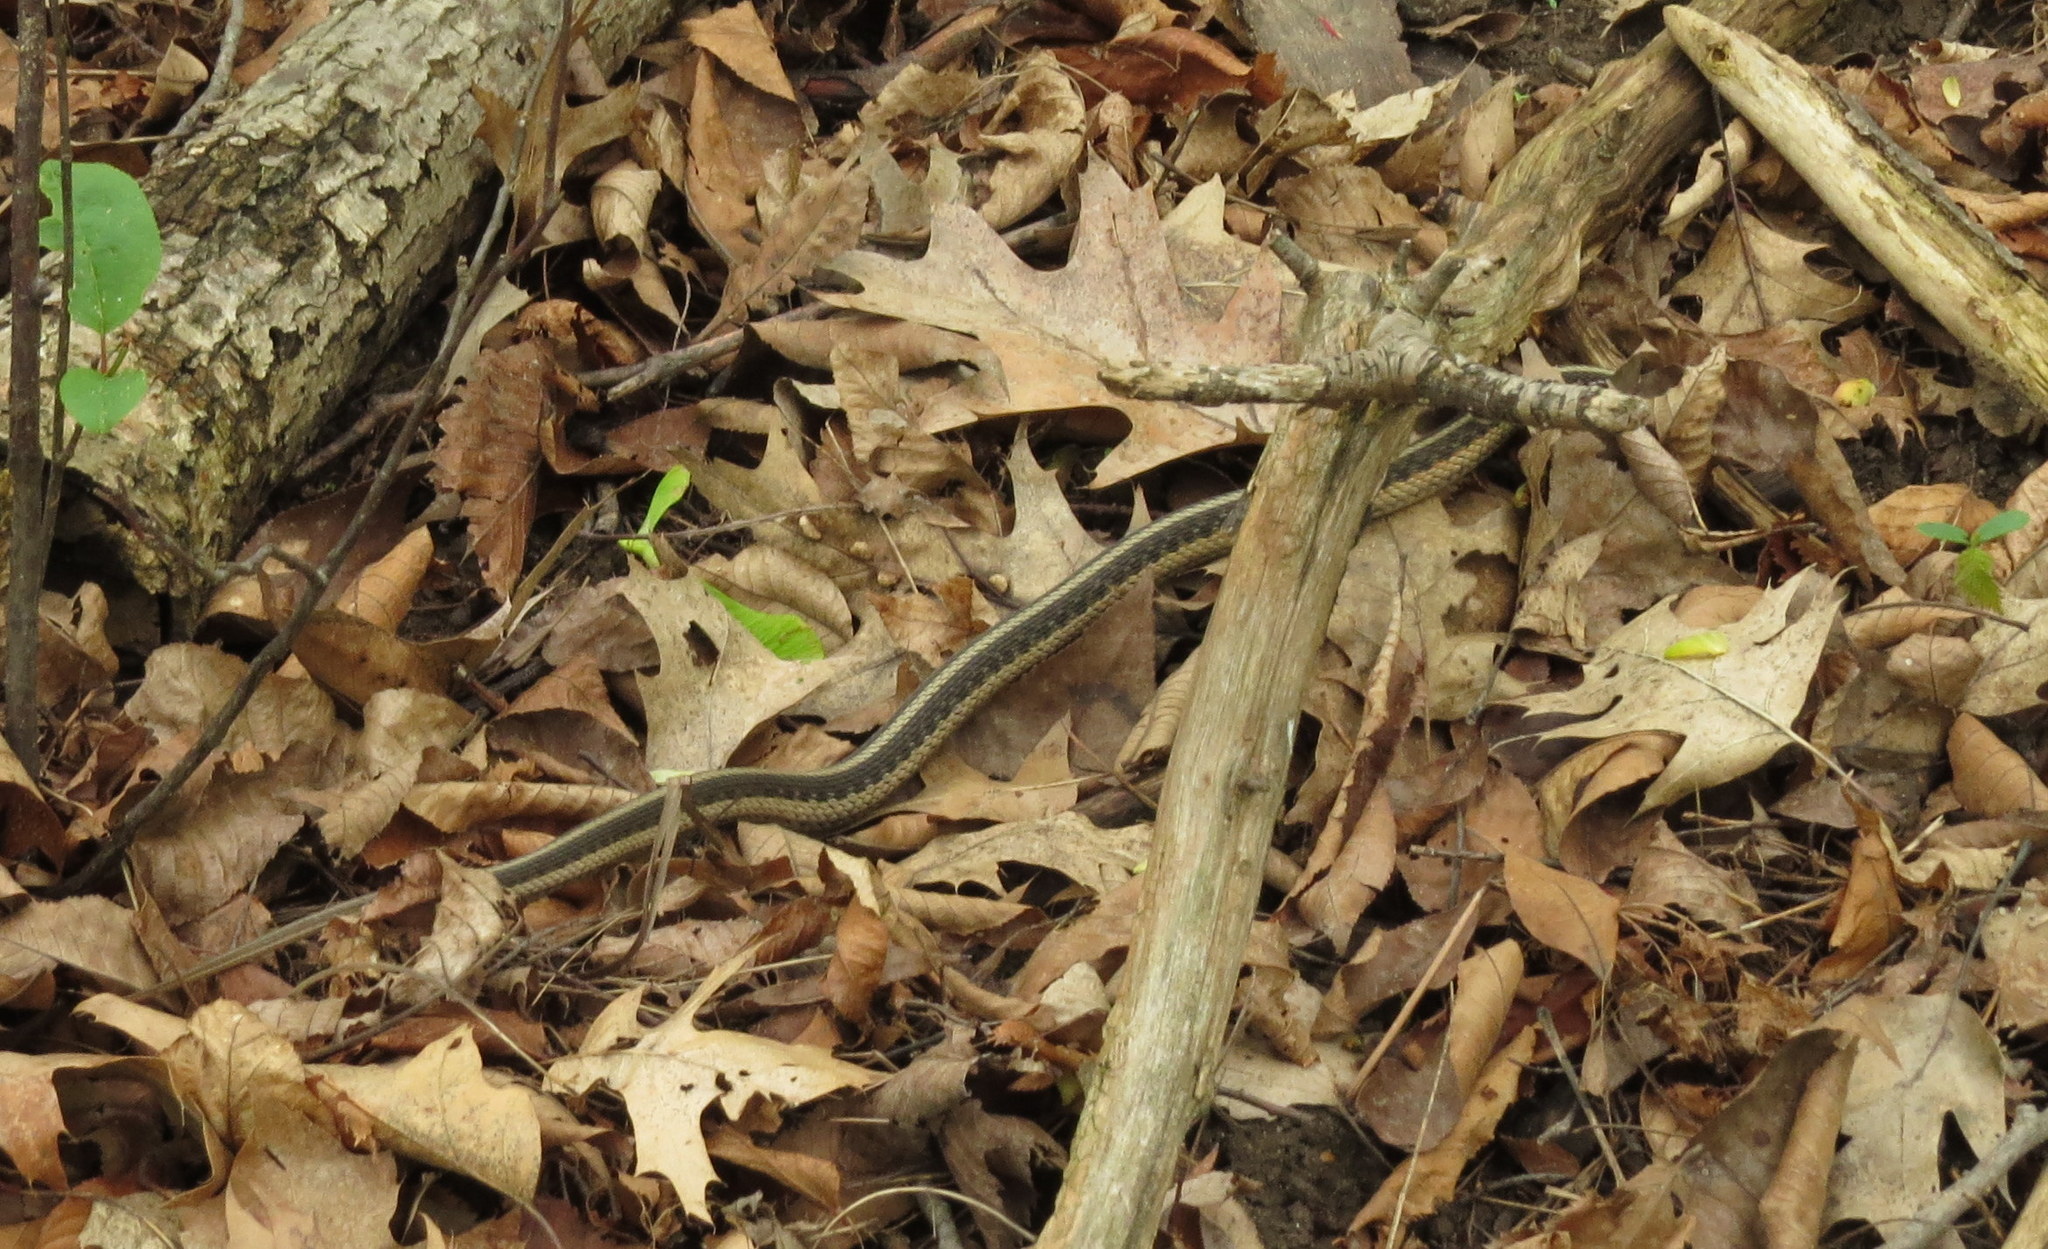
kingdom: Animalia
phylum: Chordata
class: Squamata
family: Colubridae
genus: Thamnophis
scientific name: Thamnophis sirtalis
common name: Common garter snake
